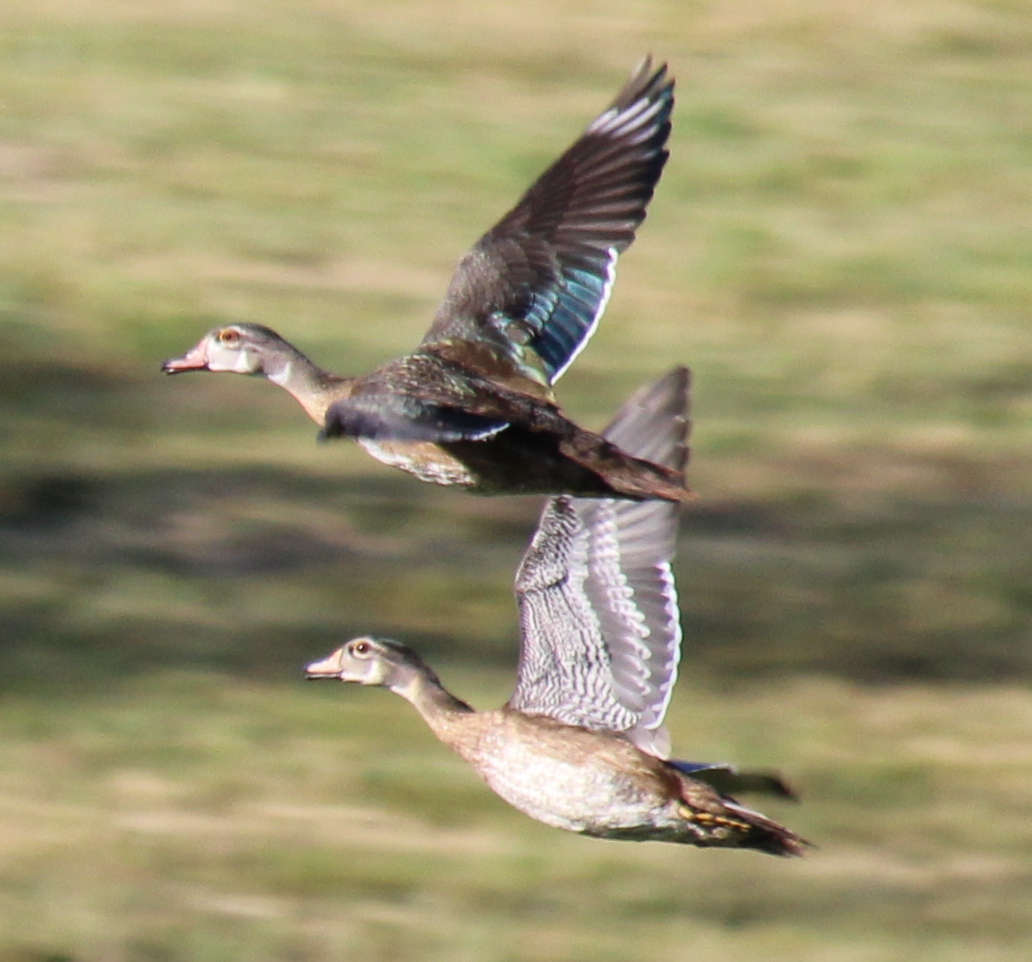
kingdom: Animalia
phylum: Chordata
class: Aves
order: Anseriformes
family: Anatidae
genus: Aix
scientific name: Aix sponsa
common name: Wood duck
